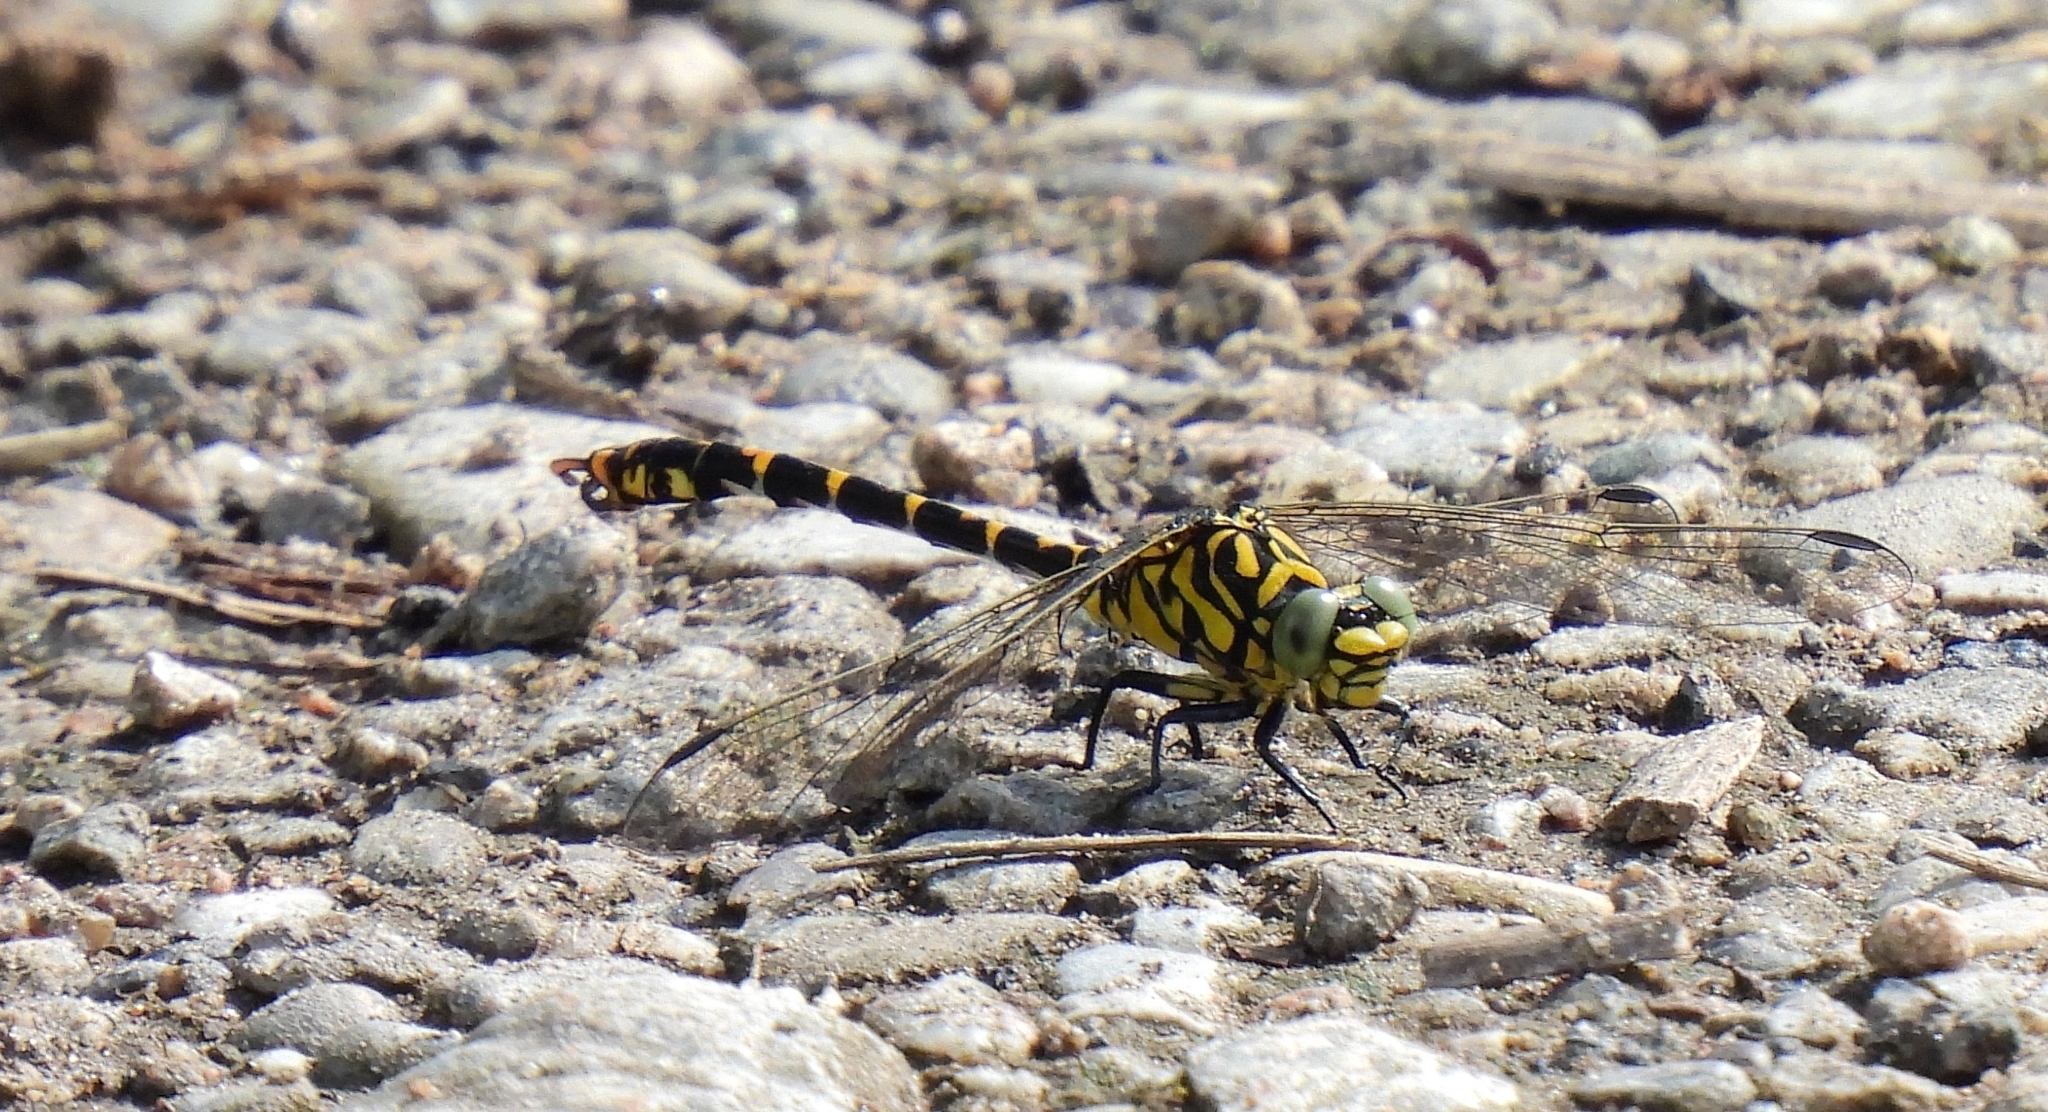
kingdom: Animalia
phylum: Arthropoda
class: Insecta
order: Odonata
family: Gomphidae
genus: Onychogomphus
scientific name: Onychogomphus forcipatus
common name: Small pincertail
